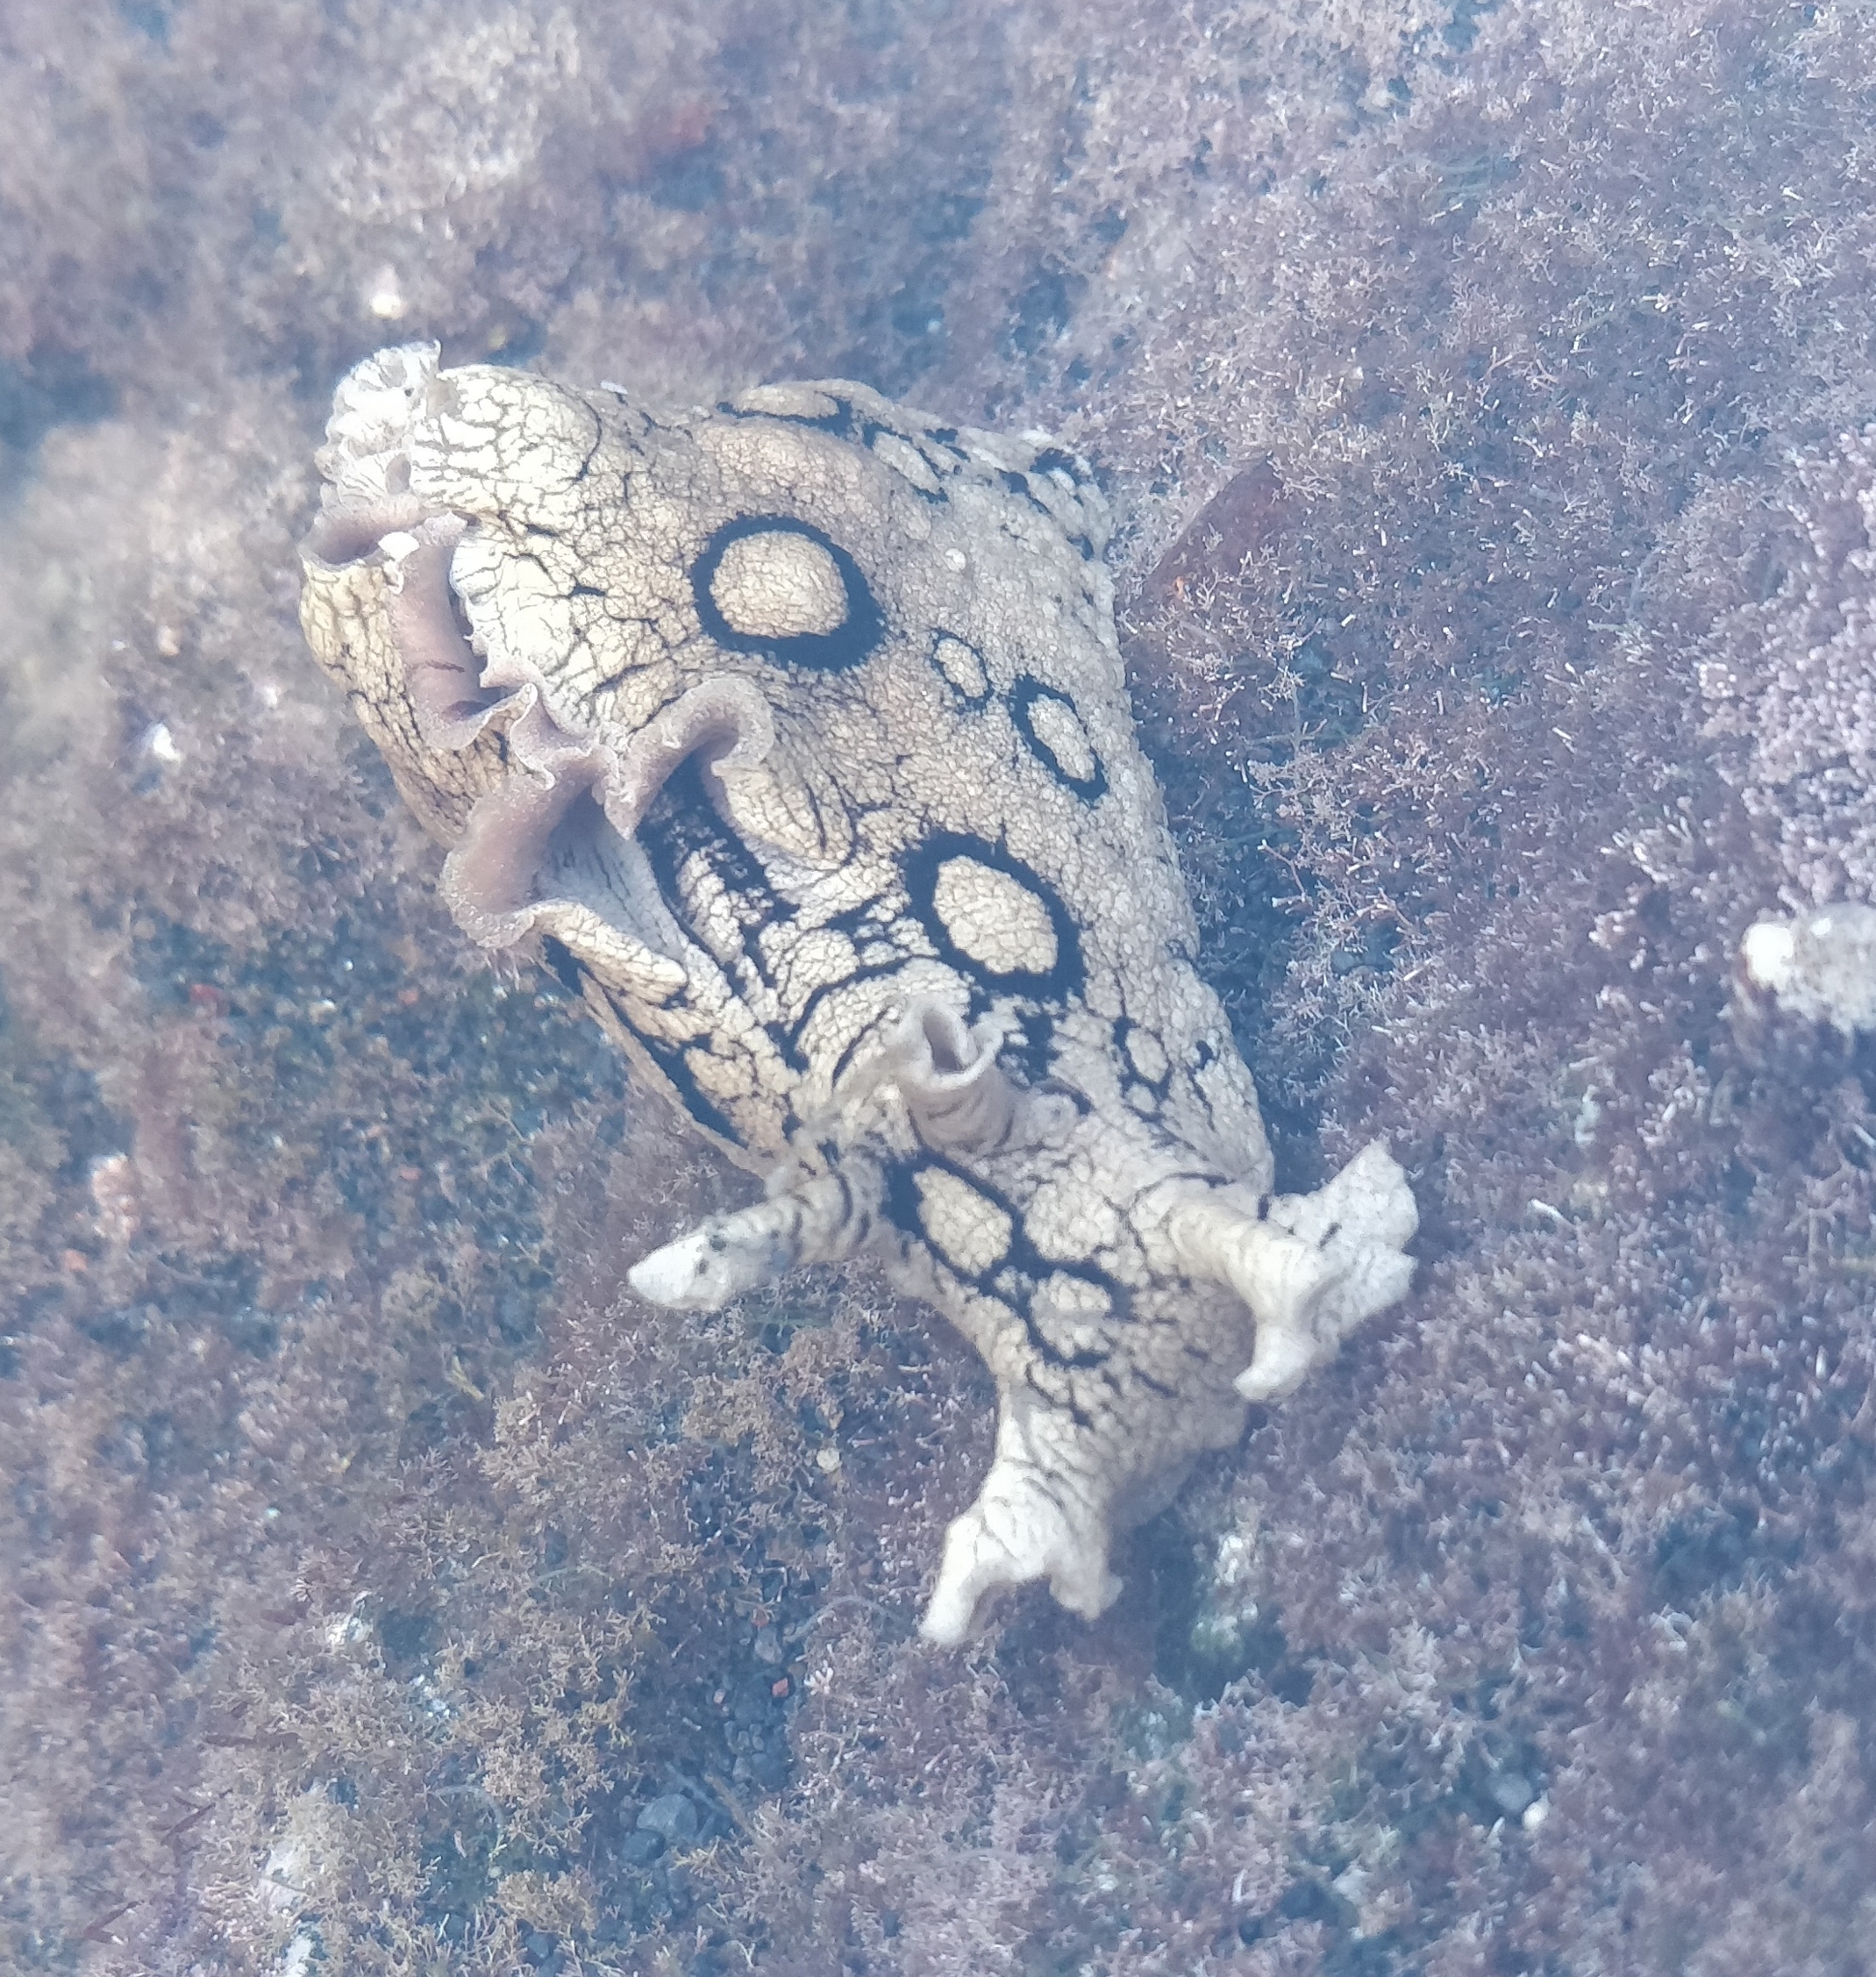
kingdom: Animalia
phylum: Mollusca
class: Gastropoda
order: Aplysiida
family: Aplysiidae
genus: Aplysia
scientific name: Aplysia dactylomela
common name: Large-spotted sea hare
